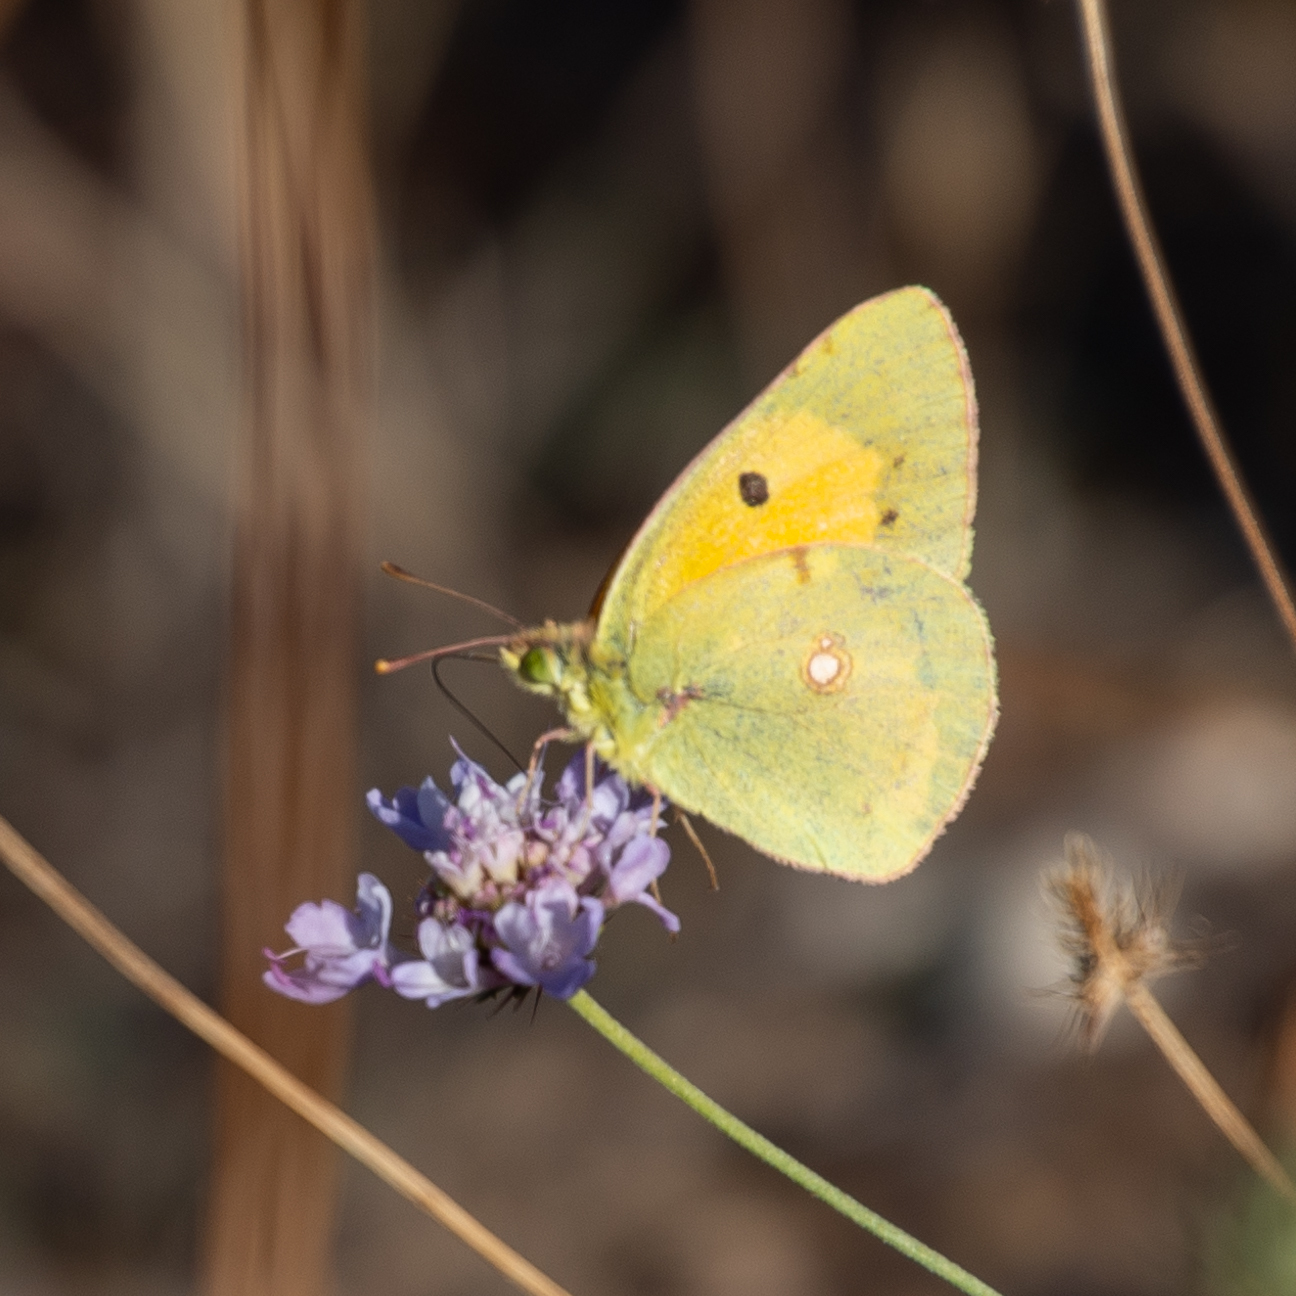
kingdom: Animalia
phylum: Arthropoda
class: Insecta
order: Lepidoptera
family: Pieridae
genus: Colias
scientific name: Colias croceus
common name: Clouded yellow
